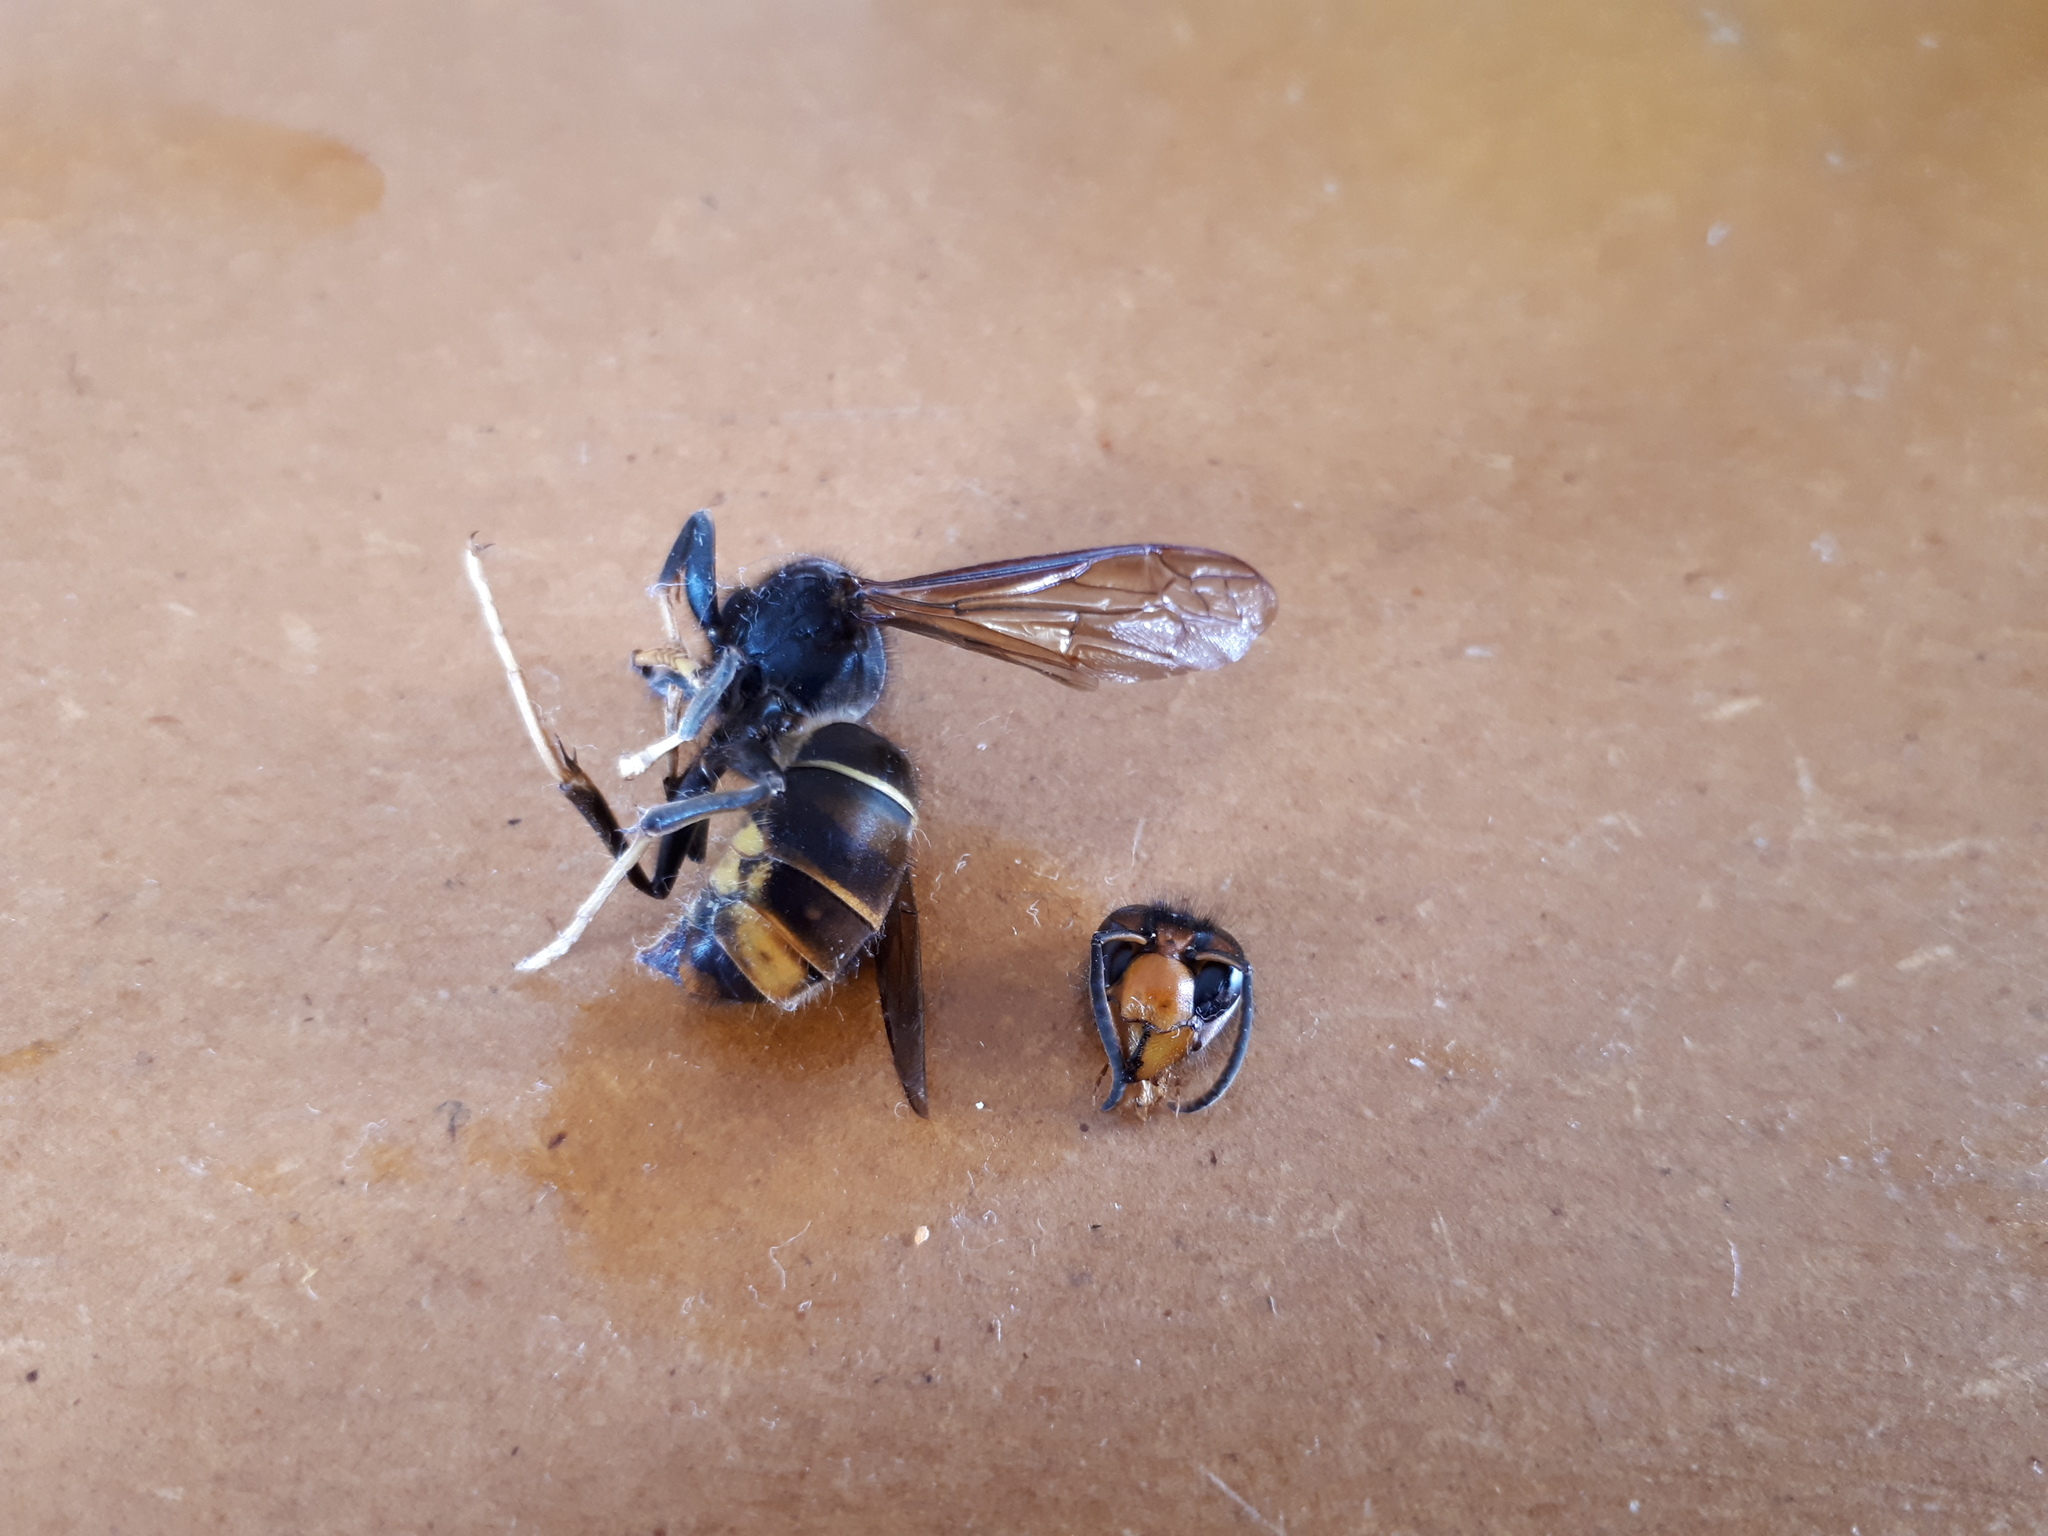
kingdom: Animalia
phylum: Arthropoda
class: Insecta
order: Hymenoptera
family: Vespidae
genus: Vespa
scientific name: Vespa velutina
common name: Asian hornet
